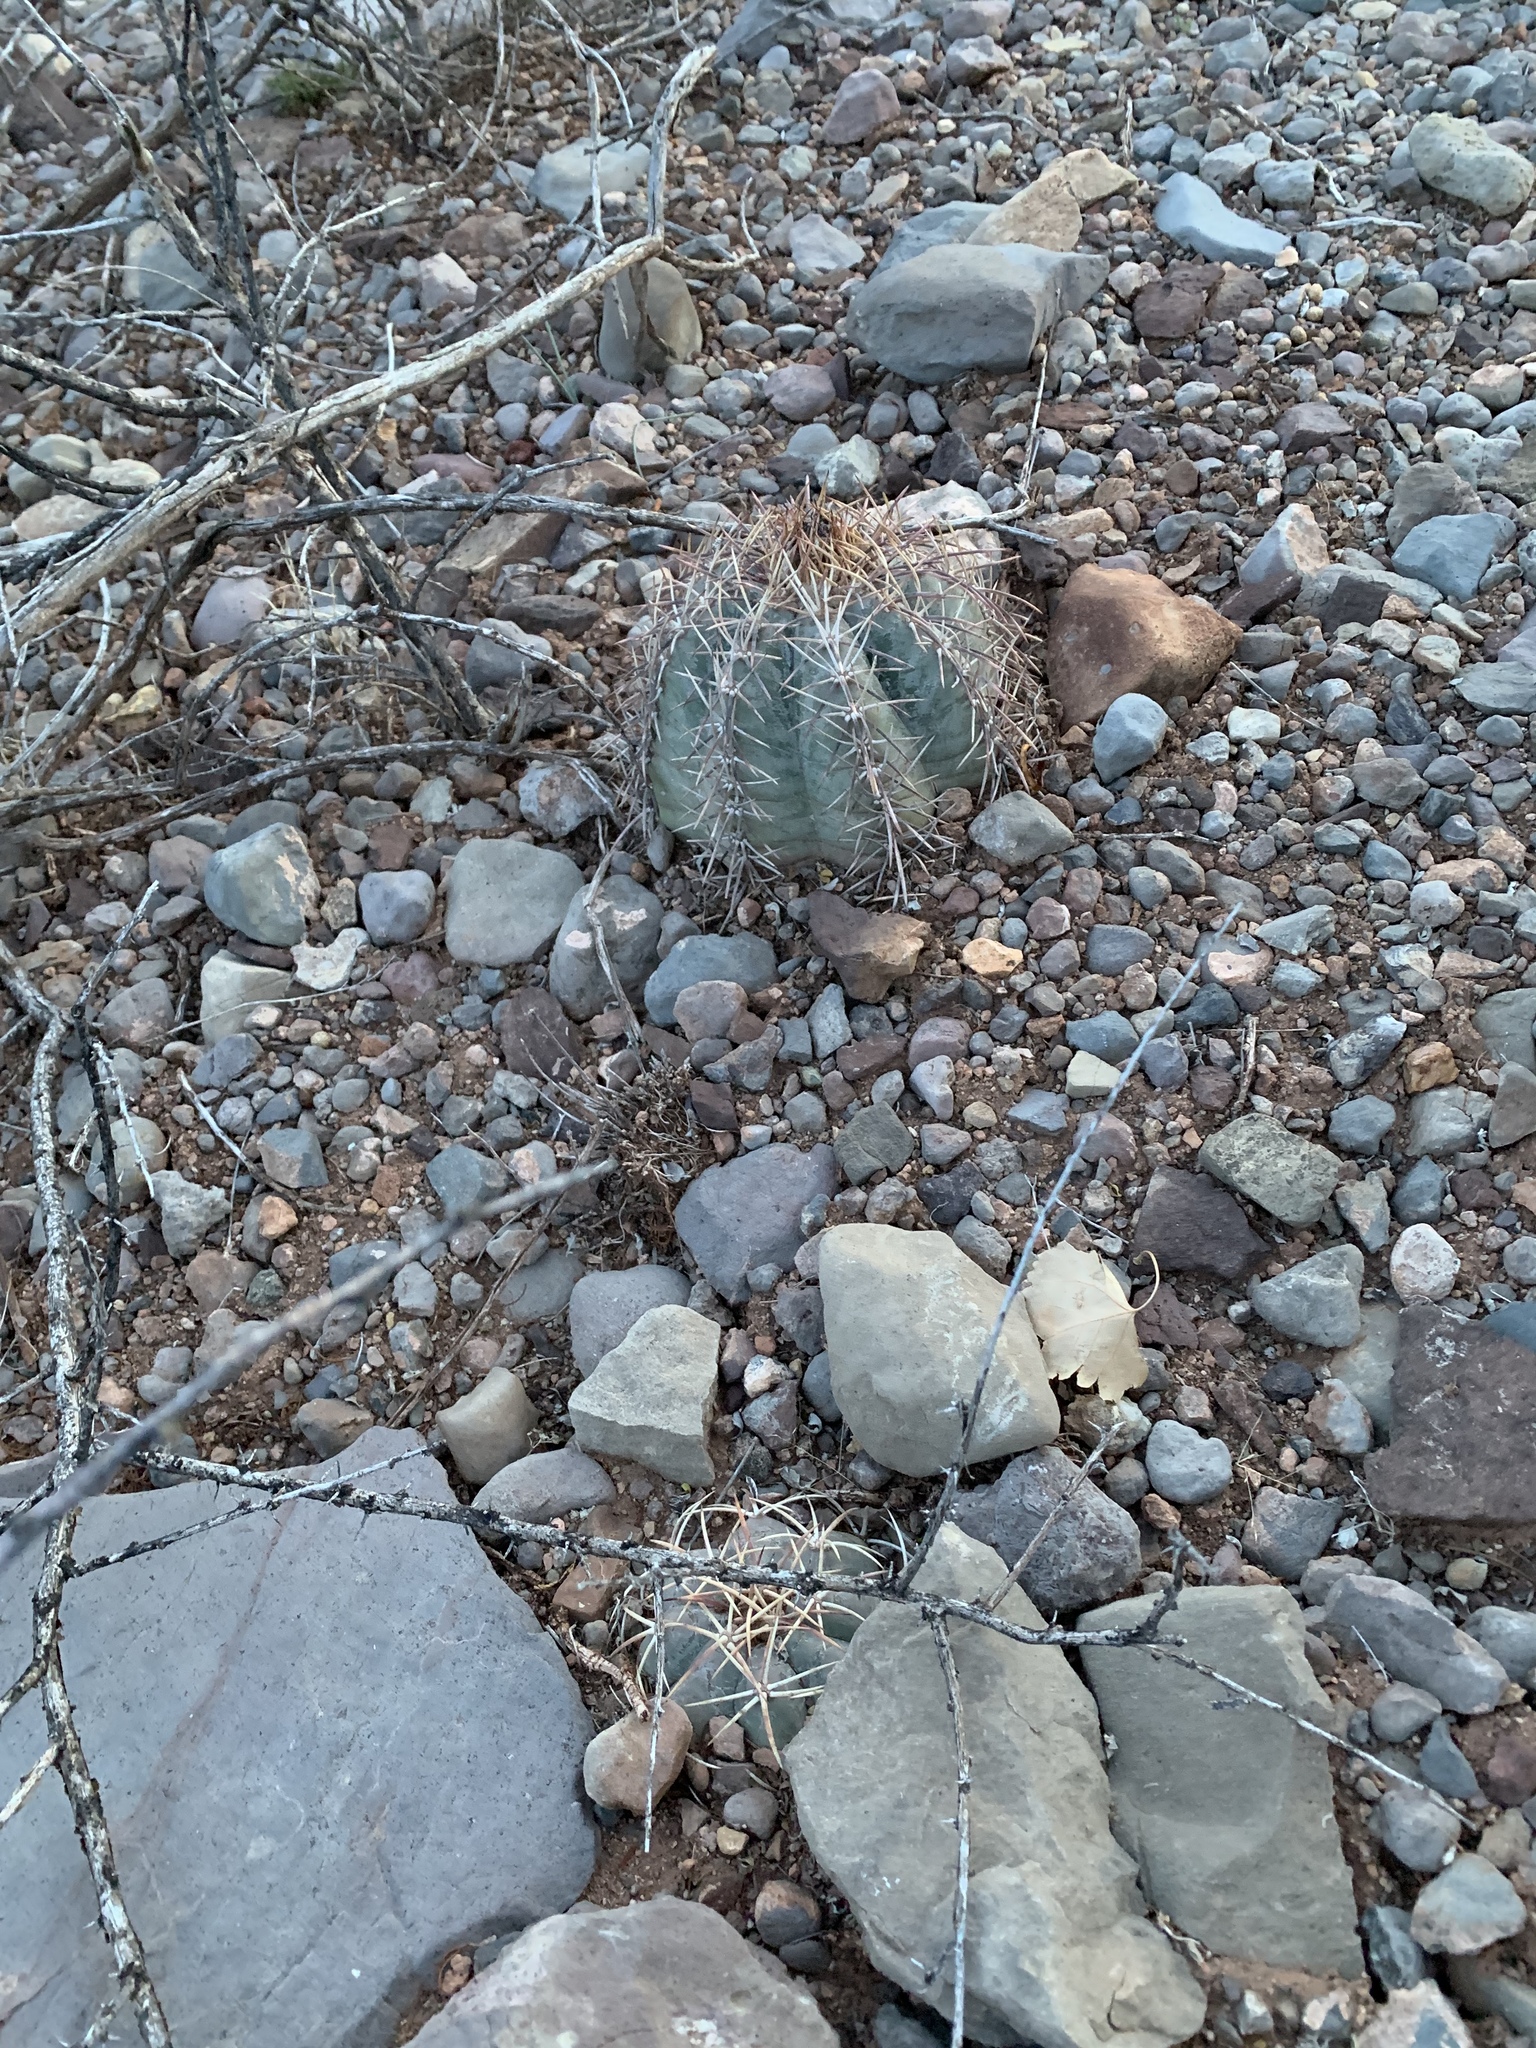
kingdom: Plantae
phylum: Tracheophyta
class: Magnoliopsida
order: Caryophyllales
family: Cactaceae
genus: Echinocactus
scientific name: Echinocactus horizonthalonius
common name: Devilshead
